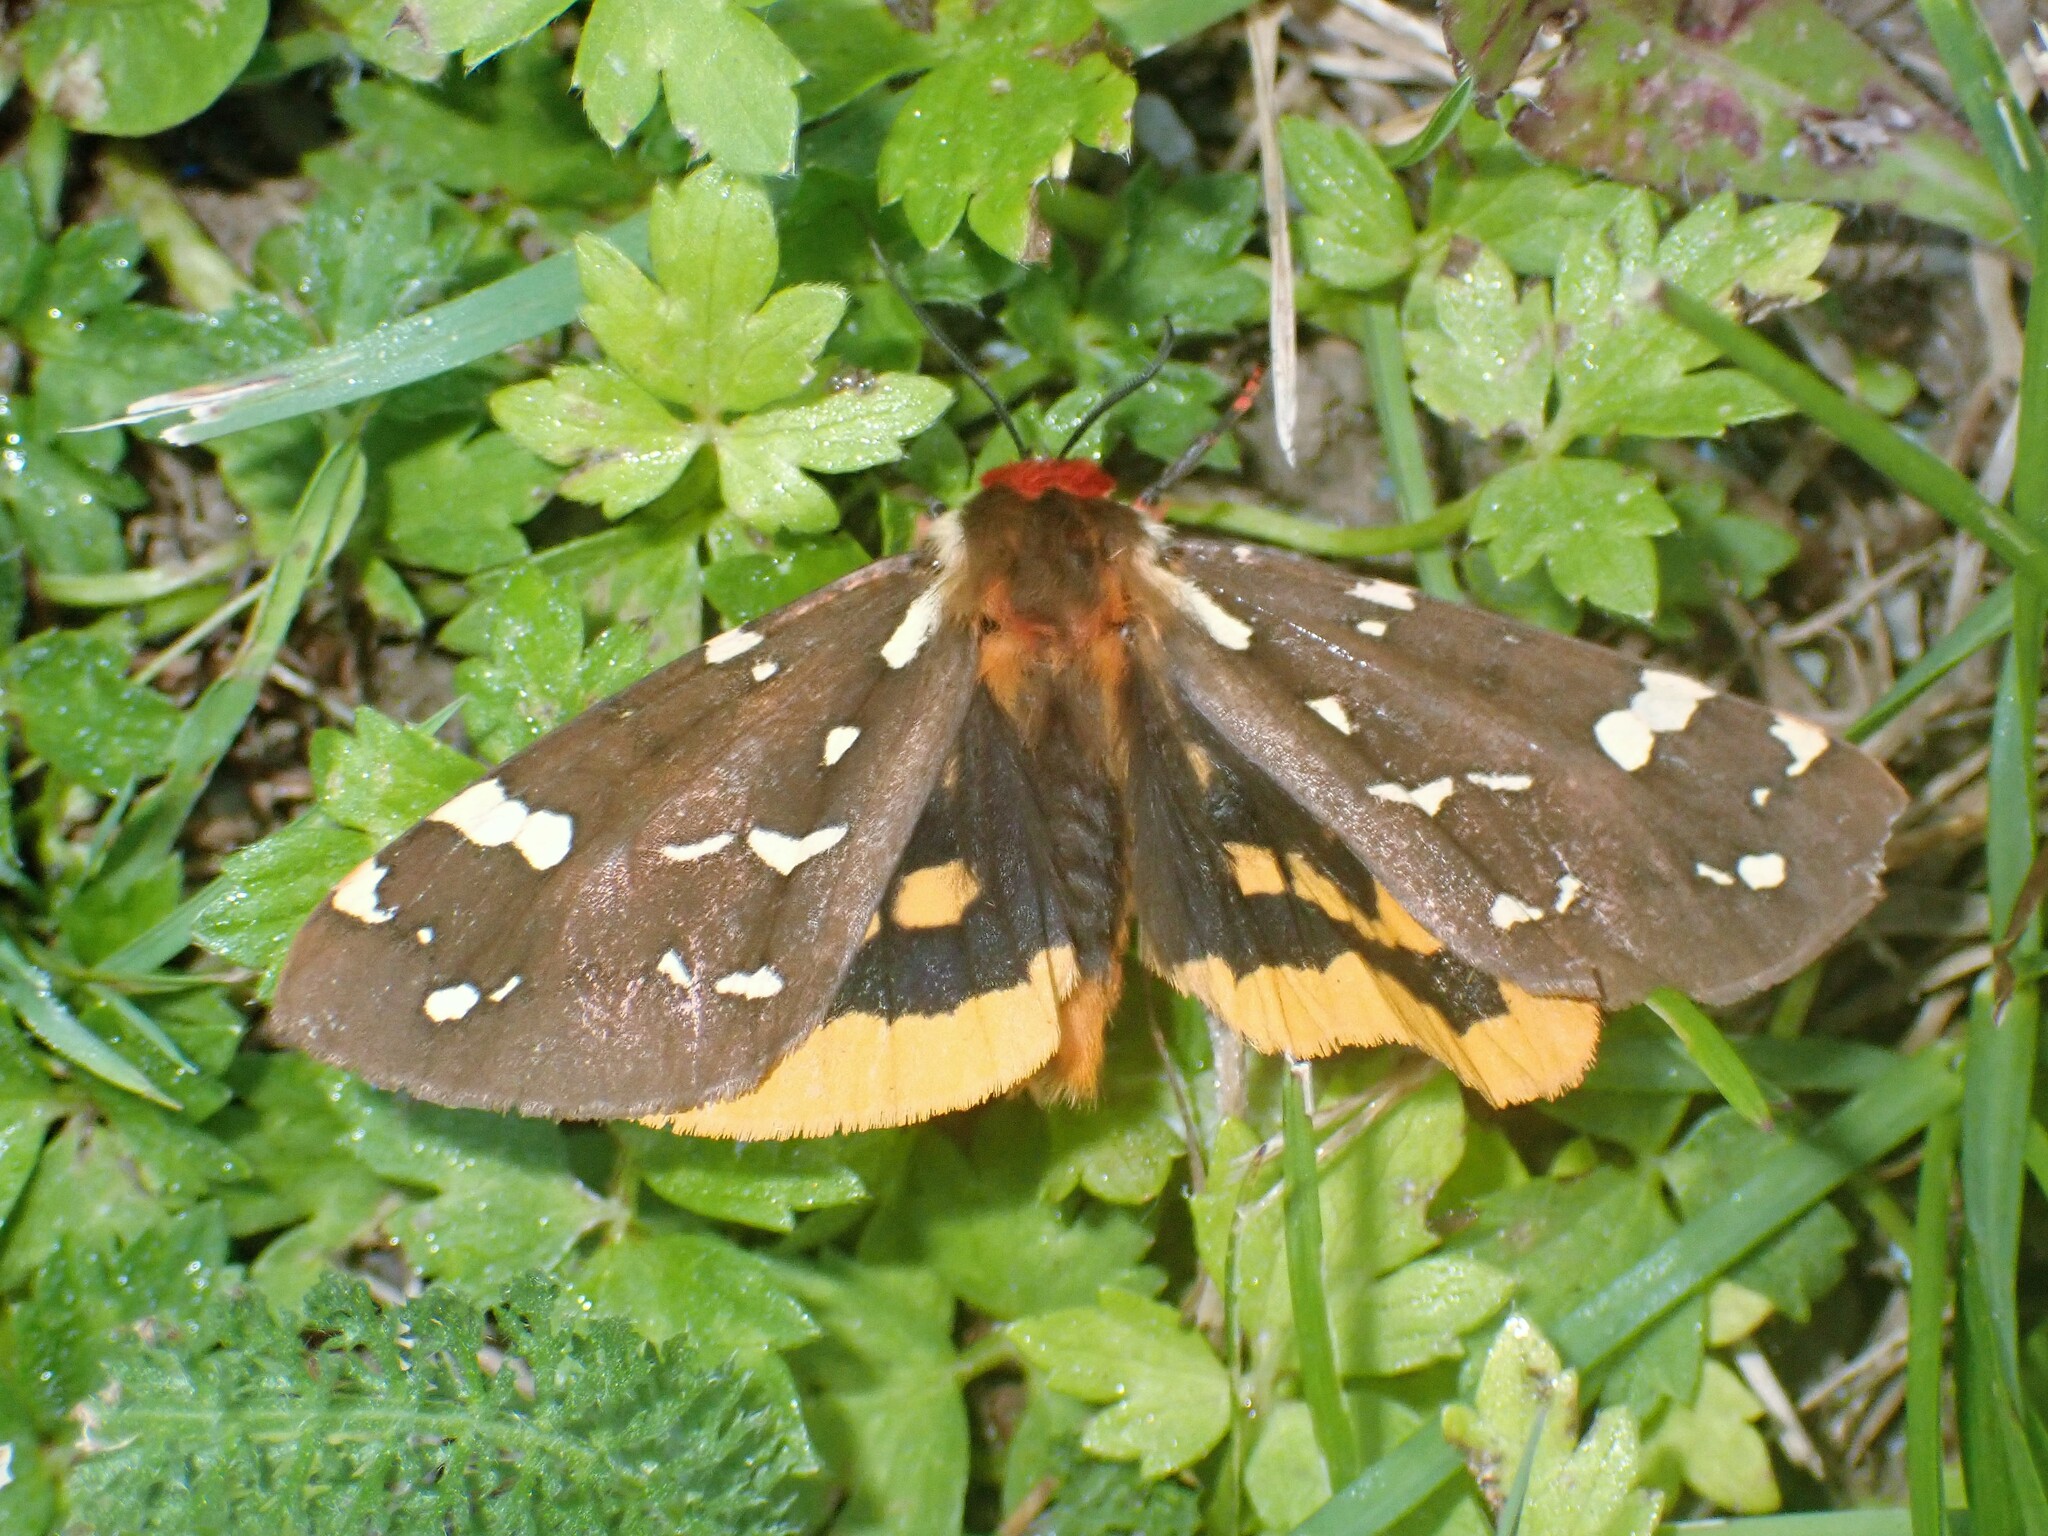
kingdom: Animalia
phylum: Arthropoda
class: Insecta
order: Lepidoptera
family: Erebidae
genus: Arctia
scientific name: Arctia parthenos
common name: St. lawrence tiger moth
